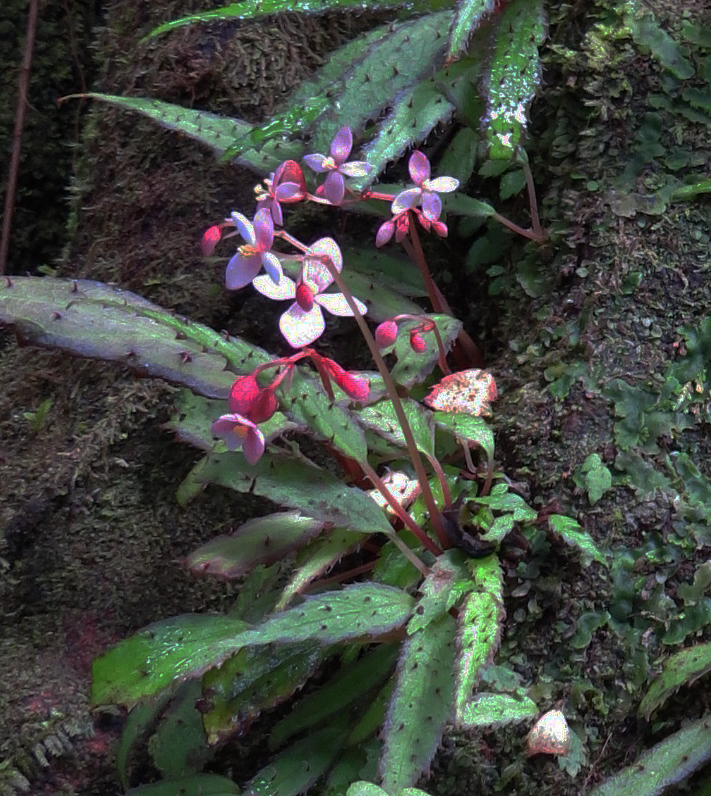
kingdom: Plantae
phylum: Tracheophyta
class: Magnoliopsida
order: Cucurbitales
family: Begoniaceae
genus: Begonia
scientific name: Begonia ambodiforahensis
